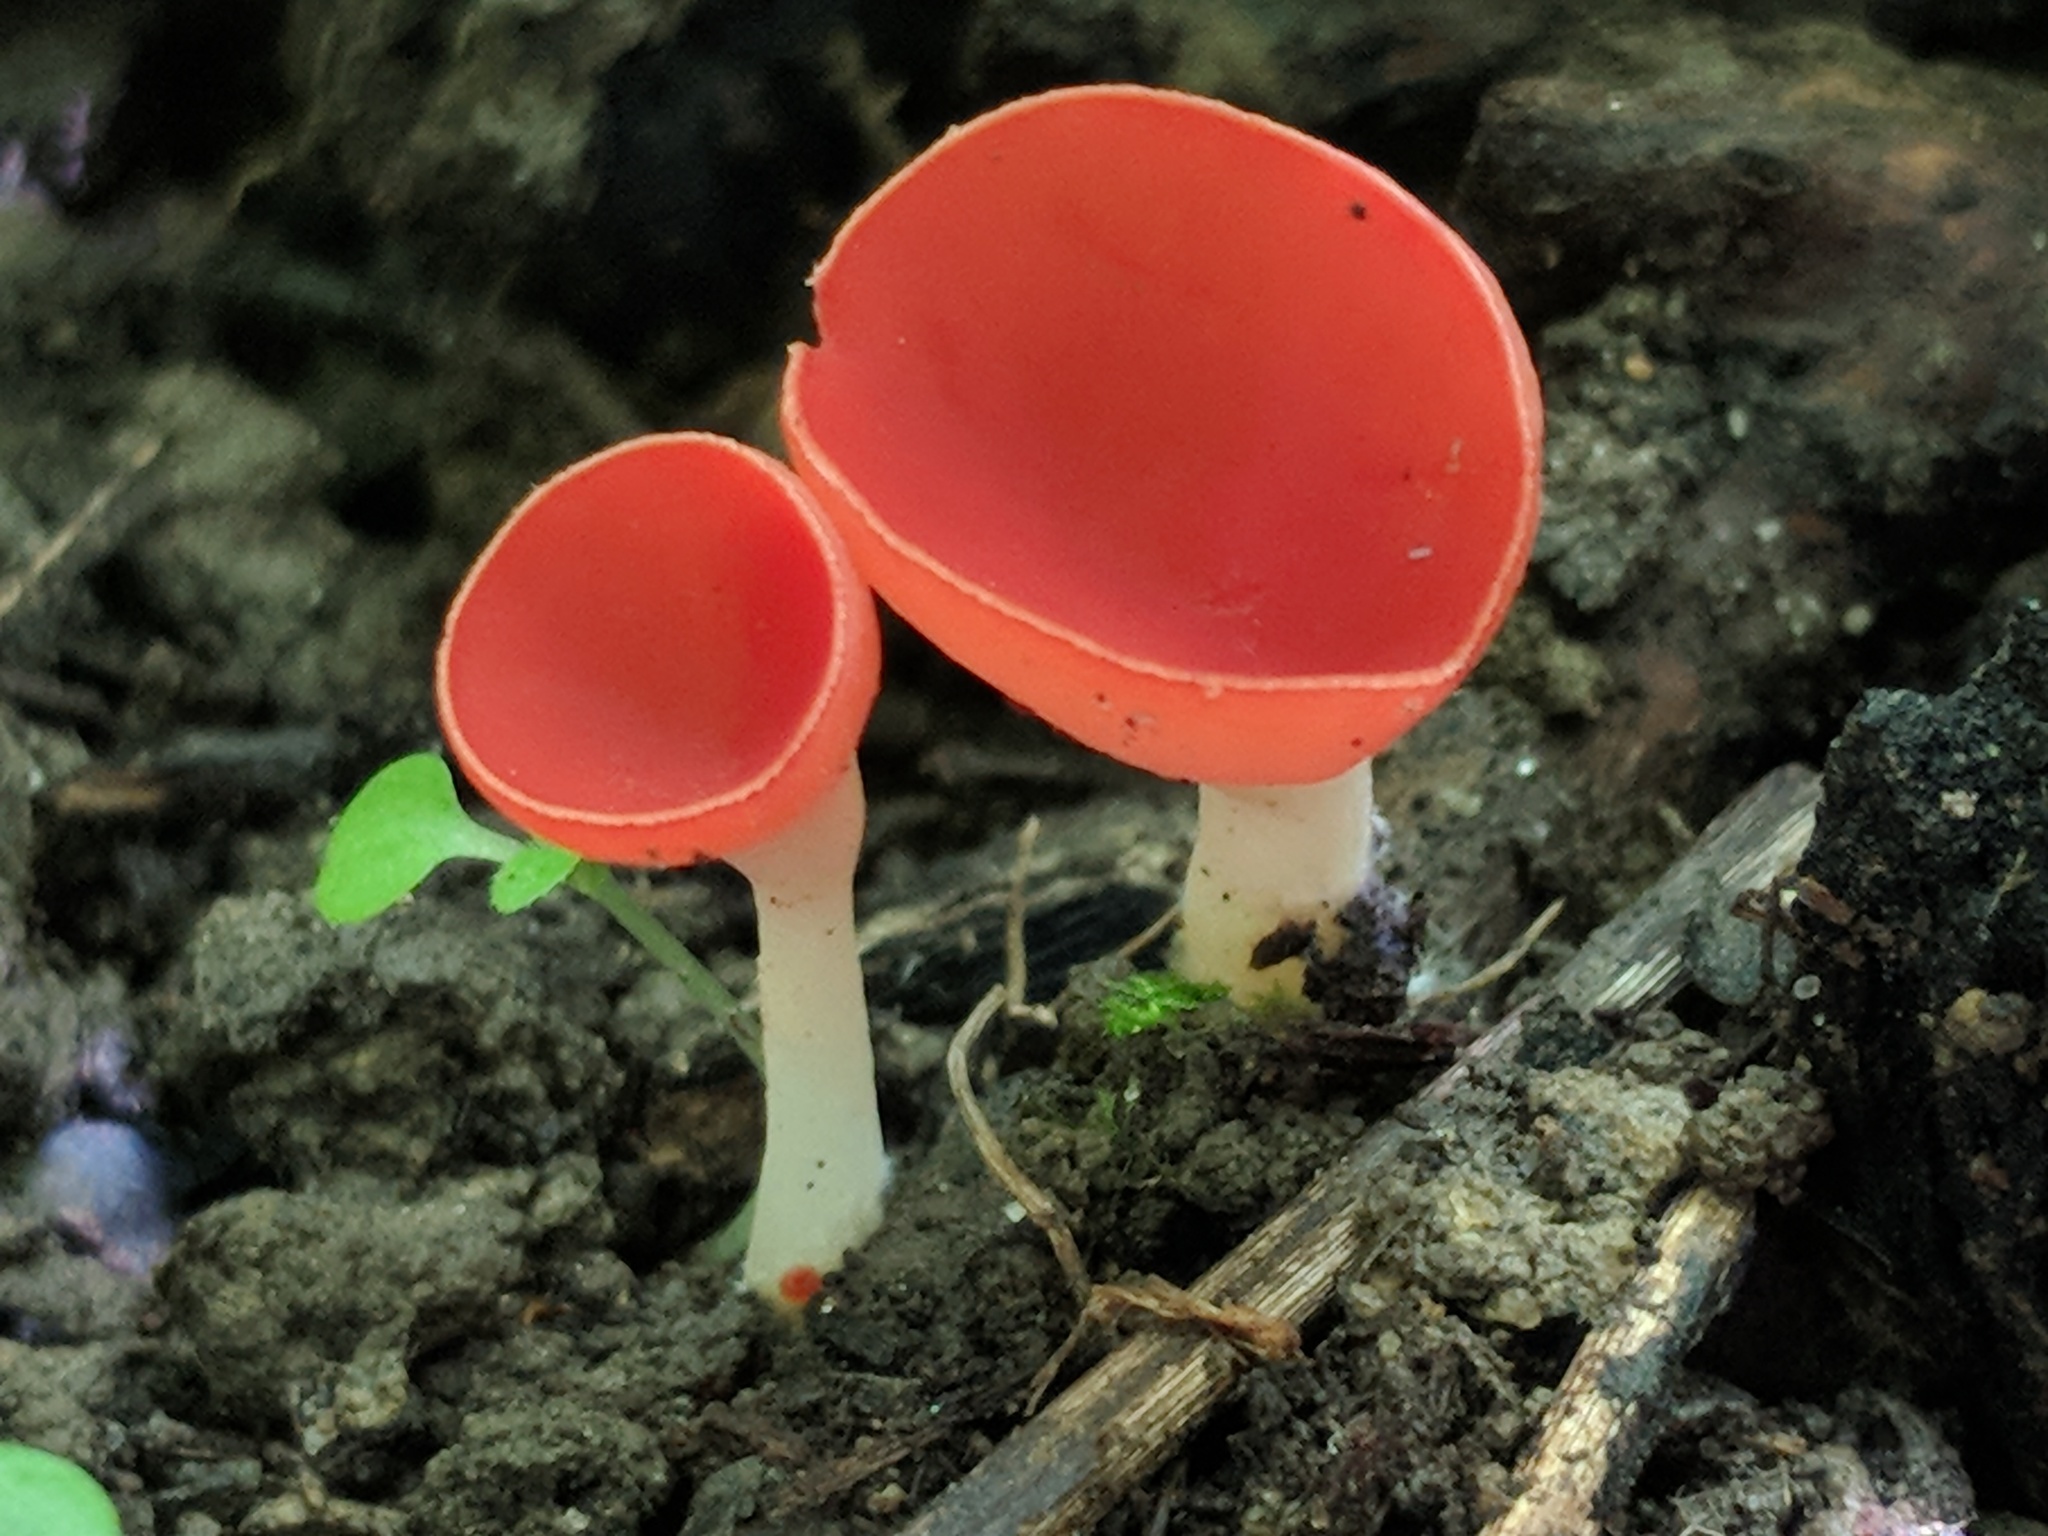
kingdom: Fungi
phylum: Ascomycota
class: Pezizomycetes
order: Pezizales
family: Sarcoscyphaceae
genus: Sarcoscypha
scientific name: Sarcoscypha occidentalis
